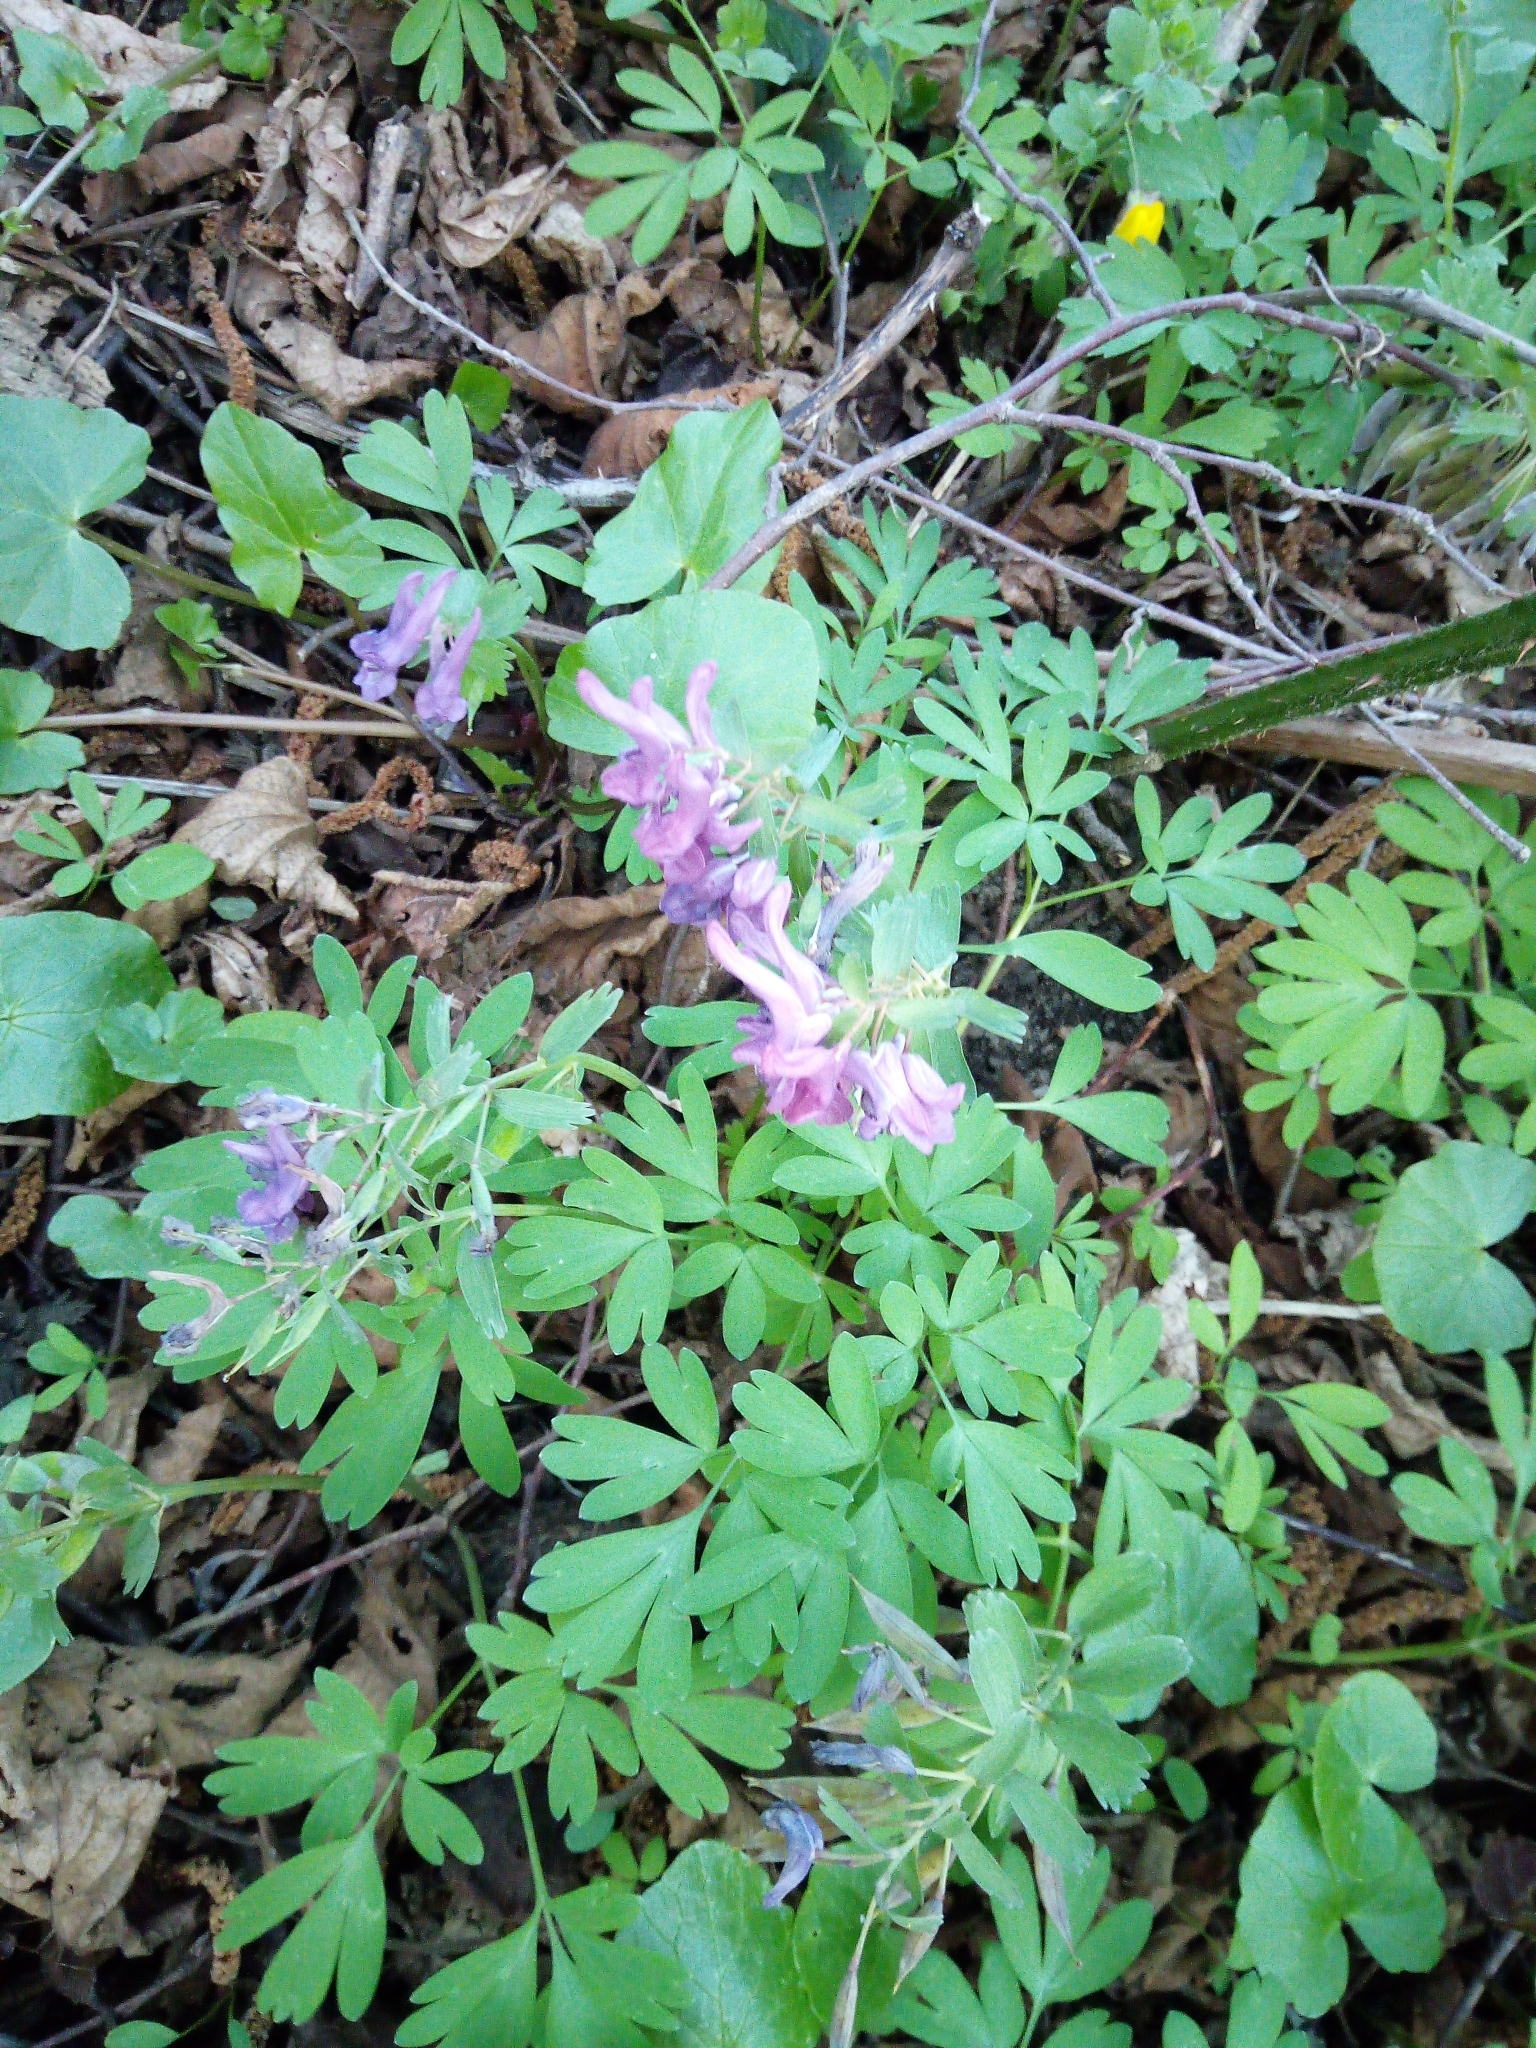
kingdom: Plantae
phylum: Tracheophyta
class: Magnoliopsida
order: Ranunculales
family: Papaveraceae
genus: Corydalis
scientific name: Corydalis solida
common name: Bird-in-a-bush
